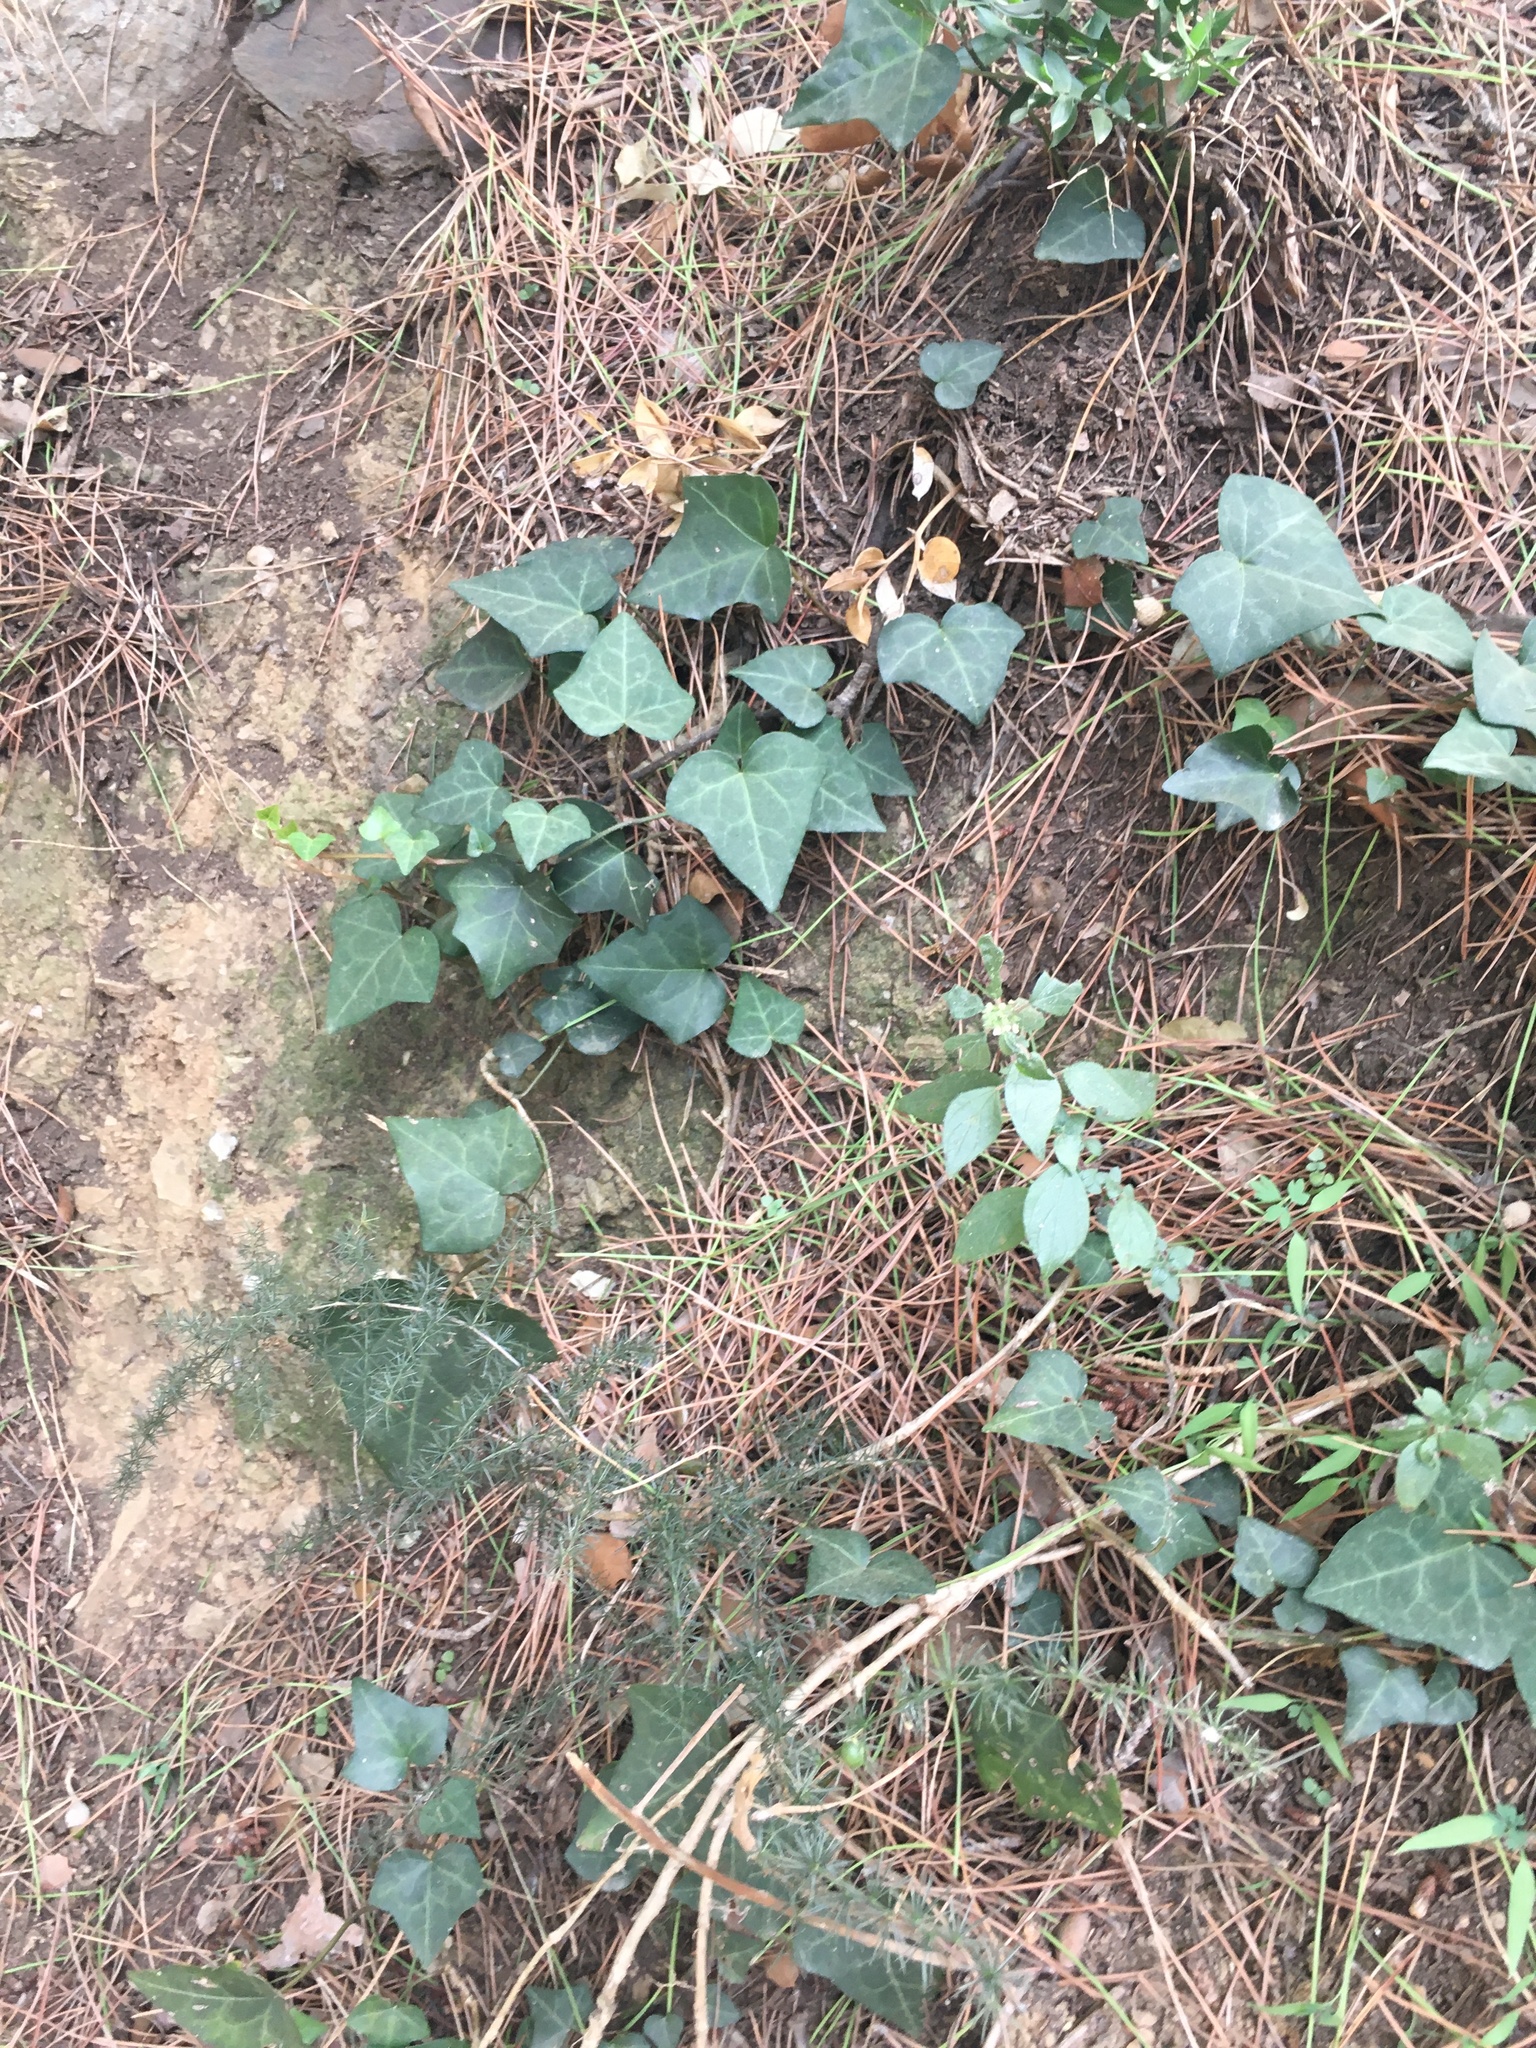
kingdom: Plantae
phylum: Tracheophyta
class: Magnoliopsida
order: Apiales
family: Araliaceae
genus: Hedera
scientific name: Hedera helix
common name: Ivy
